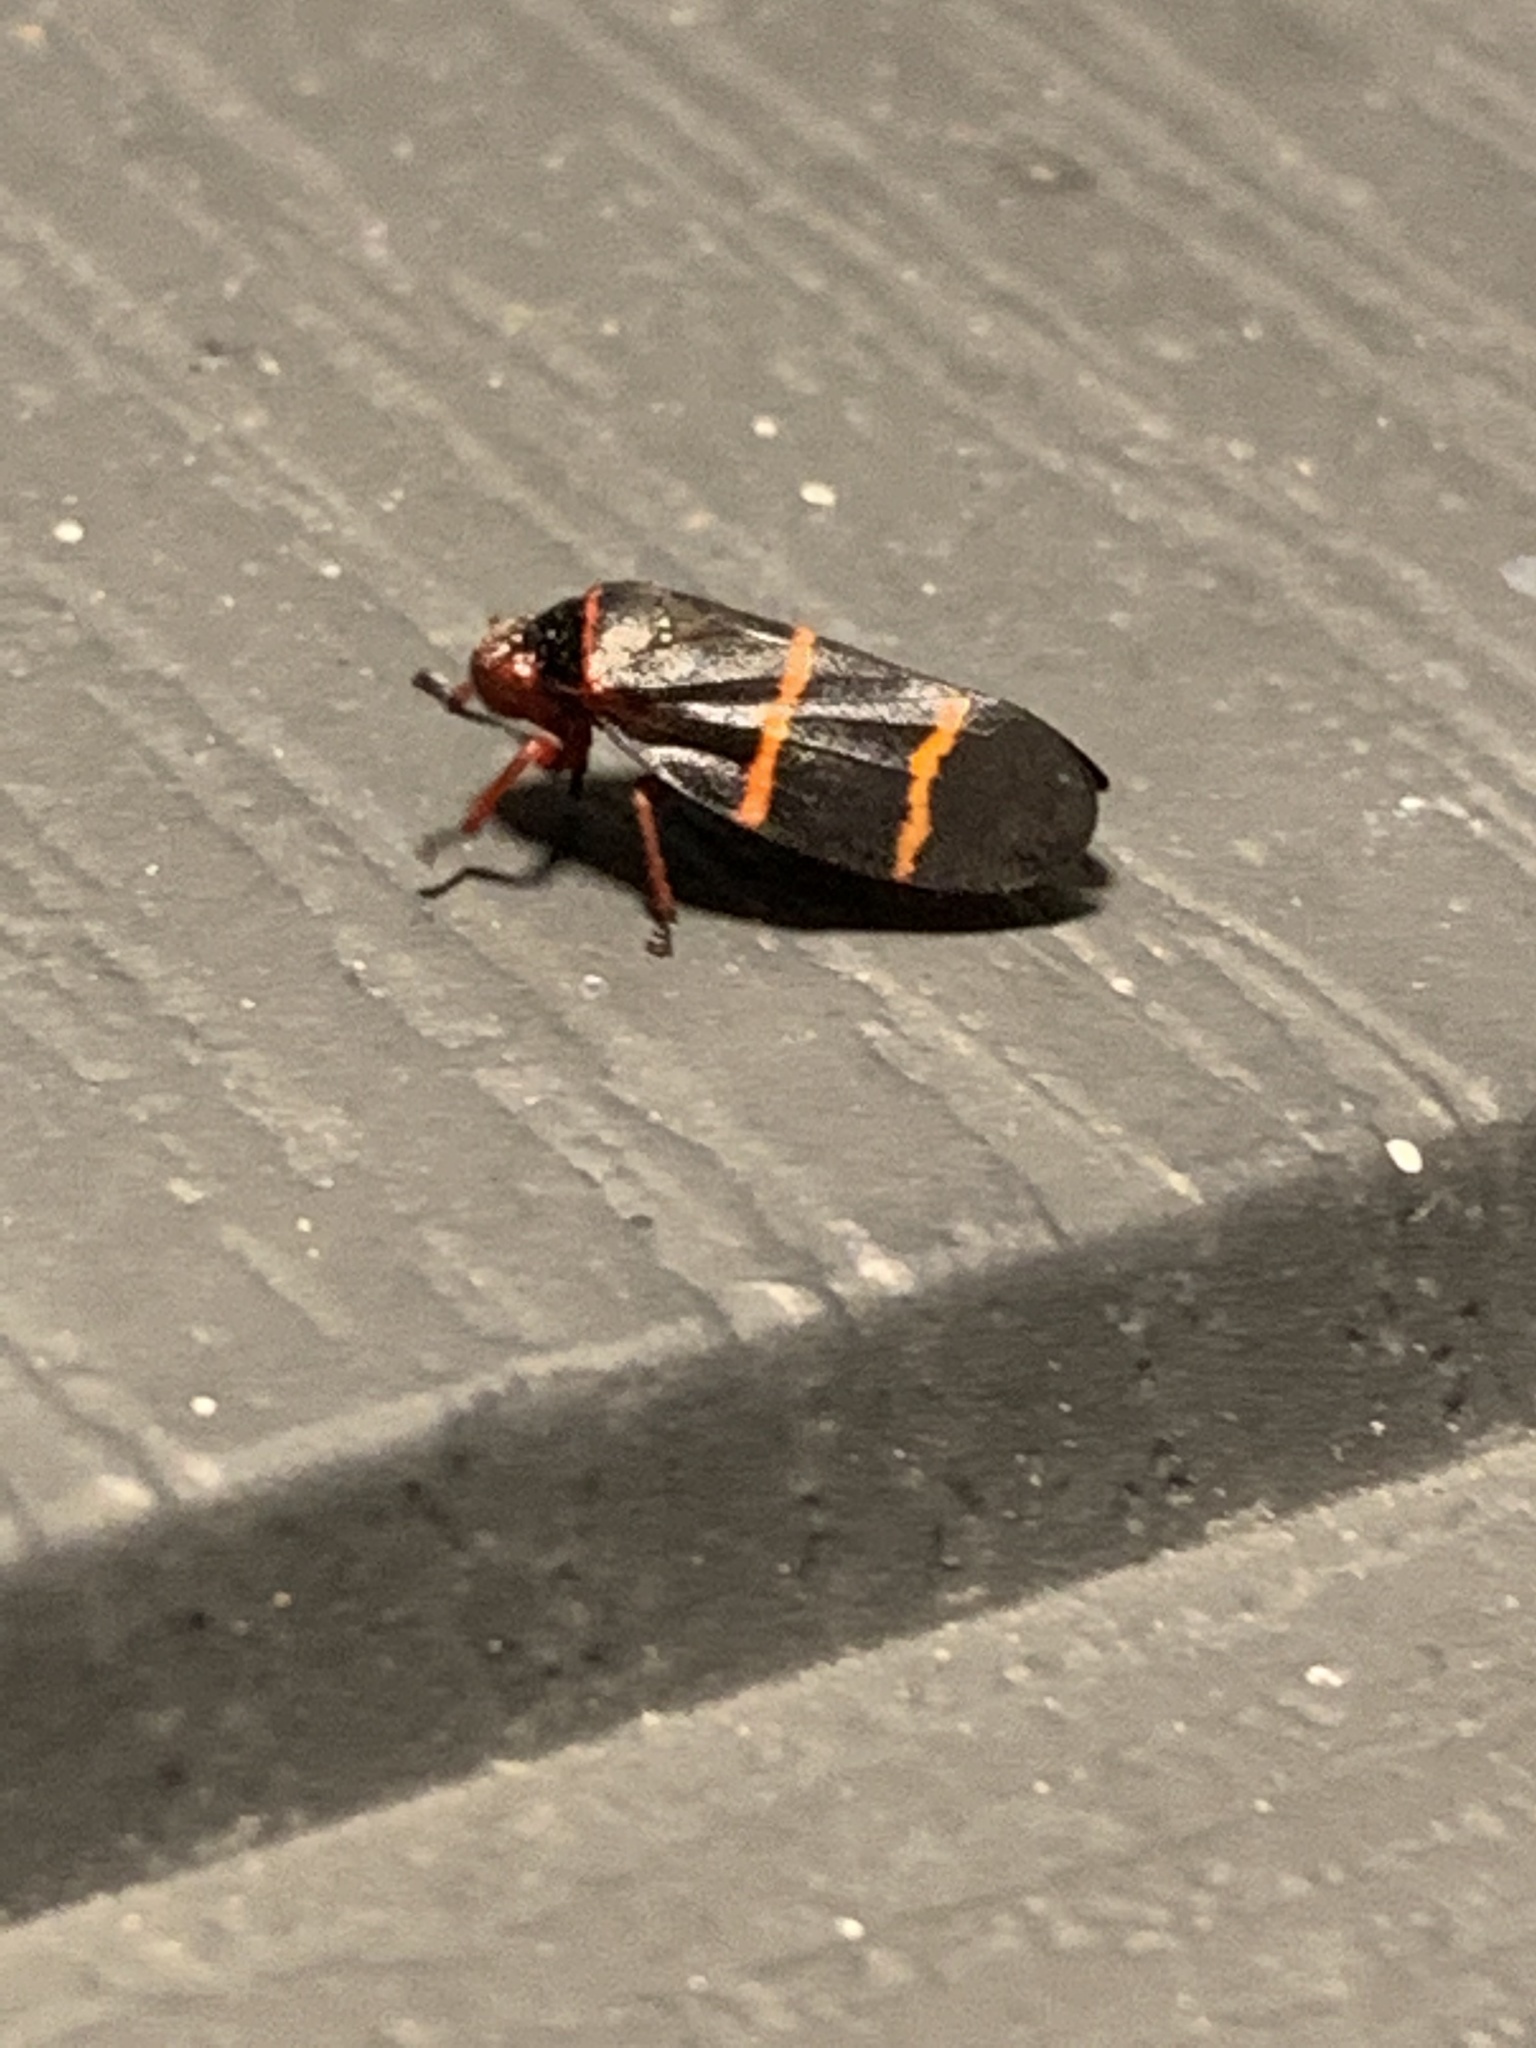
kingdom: Animalia
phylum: Arthropoda
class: Insecta
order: Hemiptera
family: Cercopidae
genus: Prosapia
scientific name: Prosapia bicincta
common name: Twolined spittlebug
